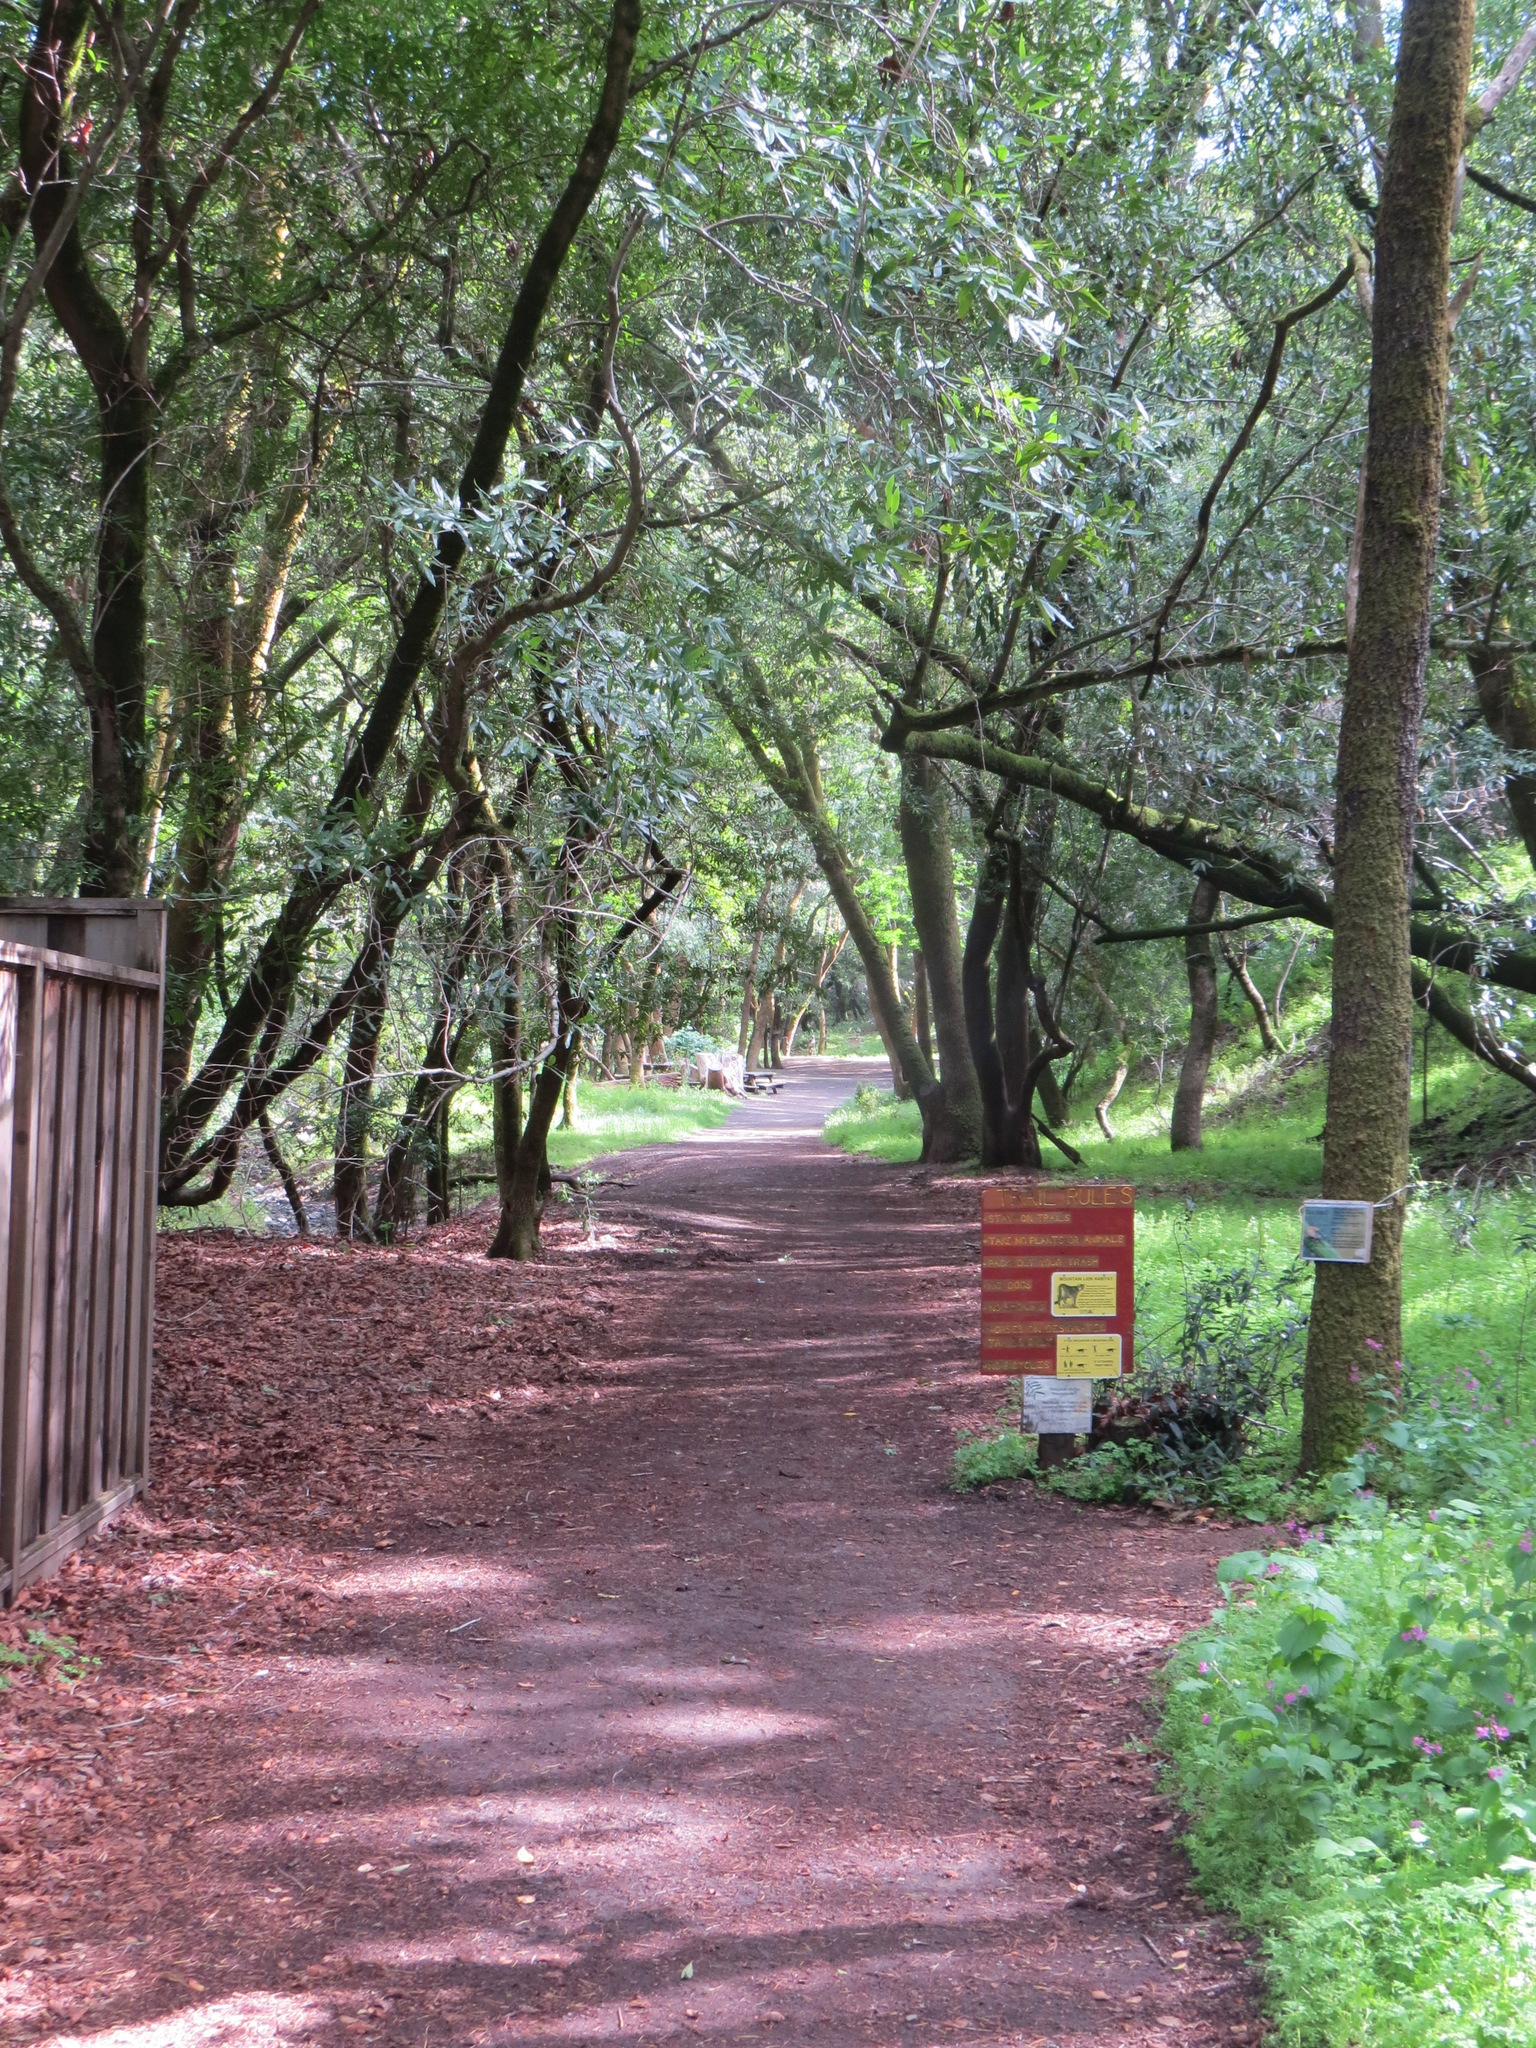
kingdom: Plantae
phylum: Tracheophyta
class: Magnoliopsida
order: Laurales
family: Lauraceae
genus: Umbellularia
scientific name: Umbellularia californica
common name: California bay
